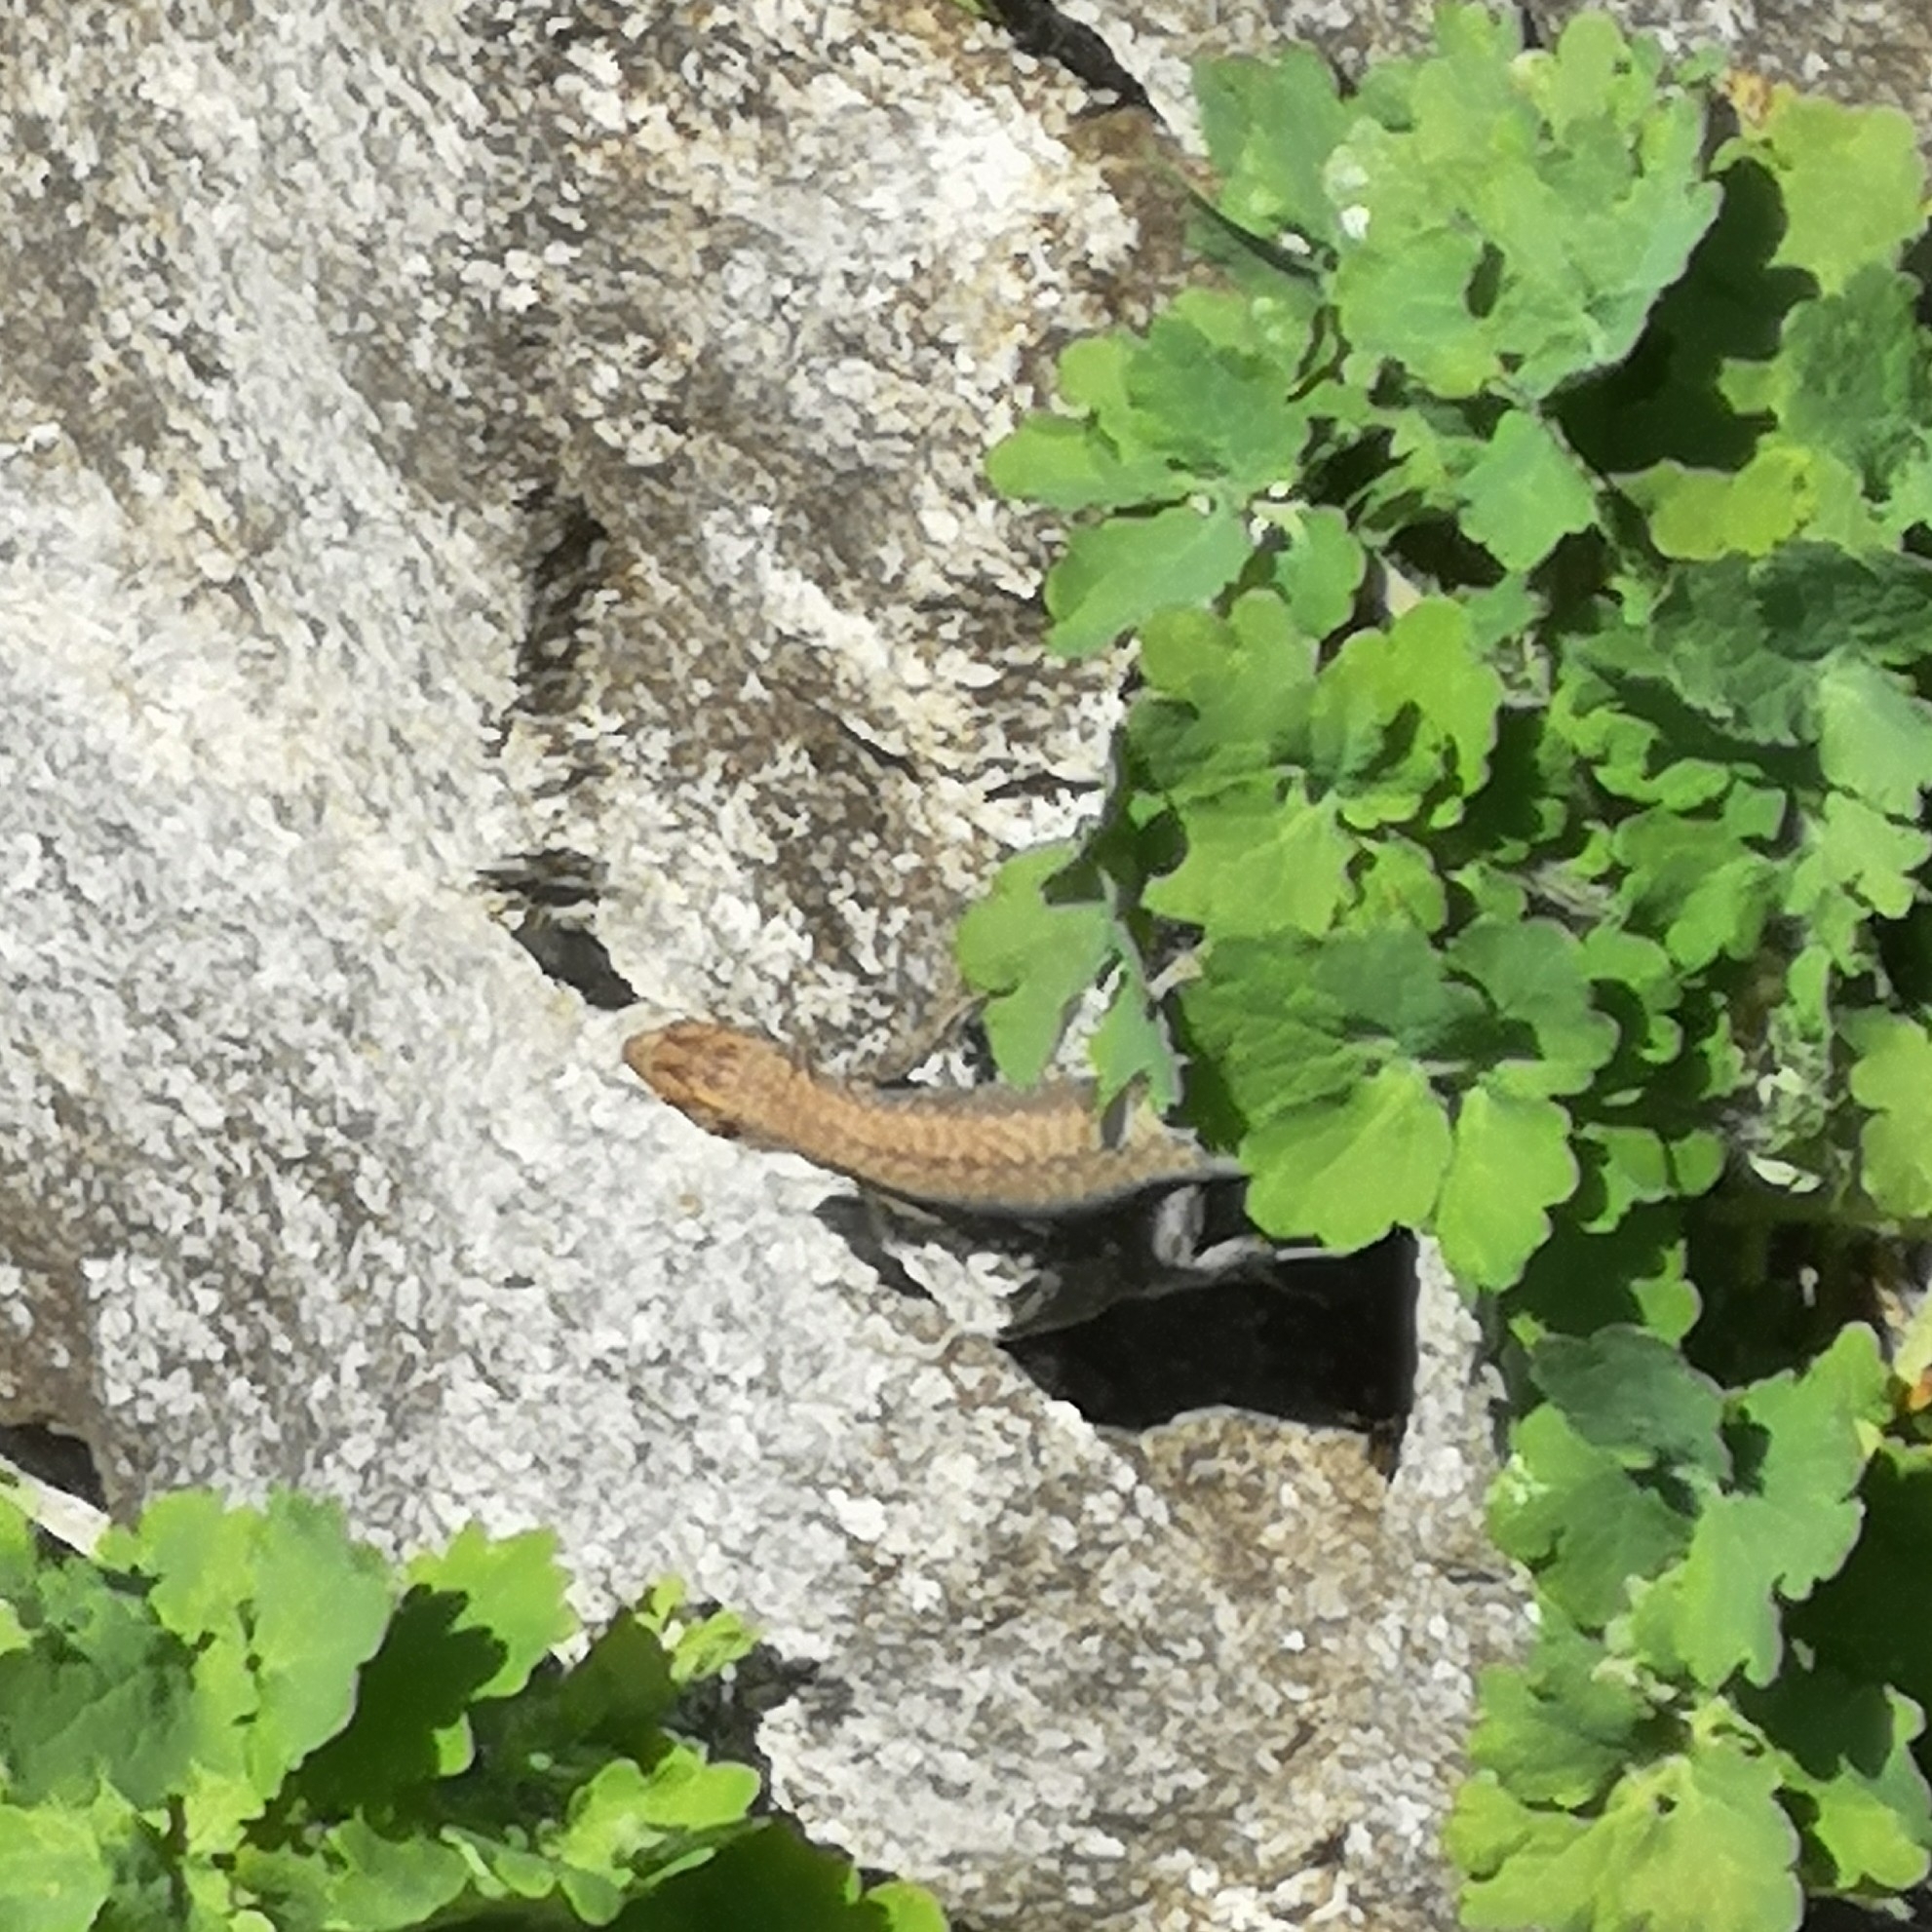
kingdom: Animalia
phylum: Chordata
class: Squamata
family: Lacertidae
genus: Podarcis
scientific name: Podarcis muralis
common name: Common wall lizard
